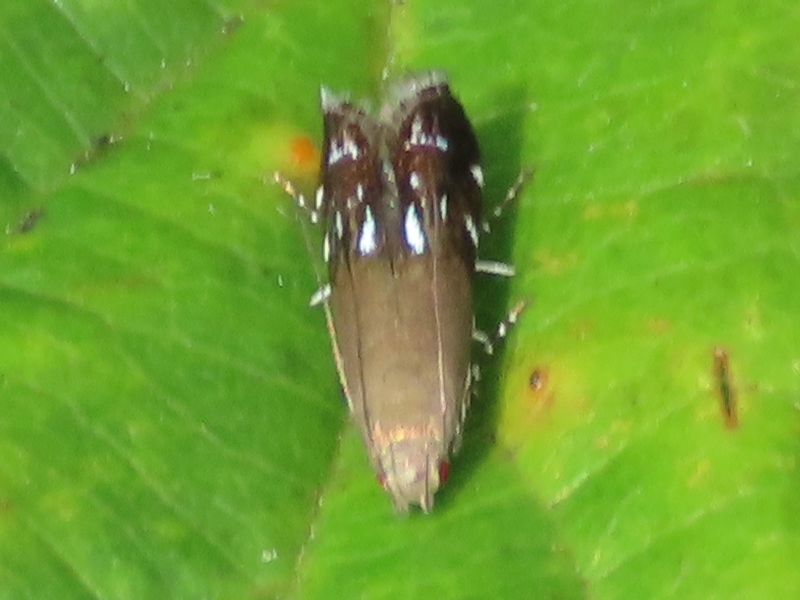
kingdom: Animalia
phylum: Arthropoda
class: Insecta
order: Lepidoptera
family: Gelechiidae
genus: Anacampsis
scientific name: Anacampsis levipedella
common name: Silver-dashed anacampsis
